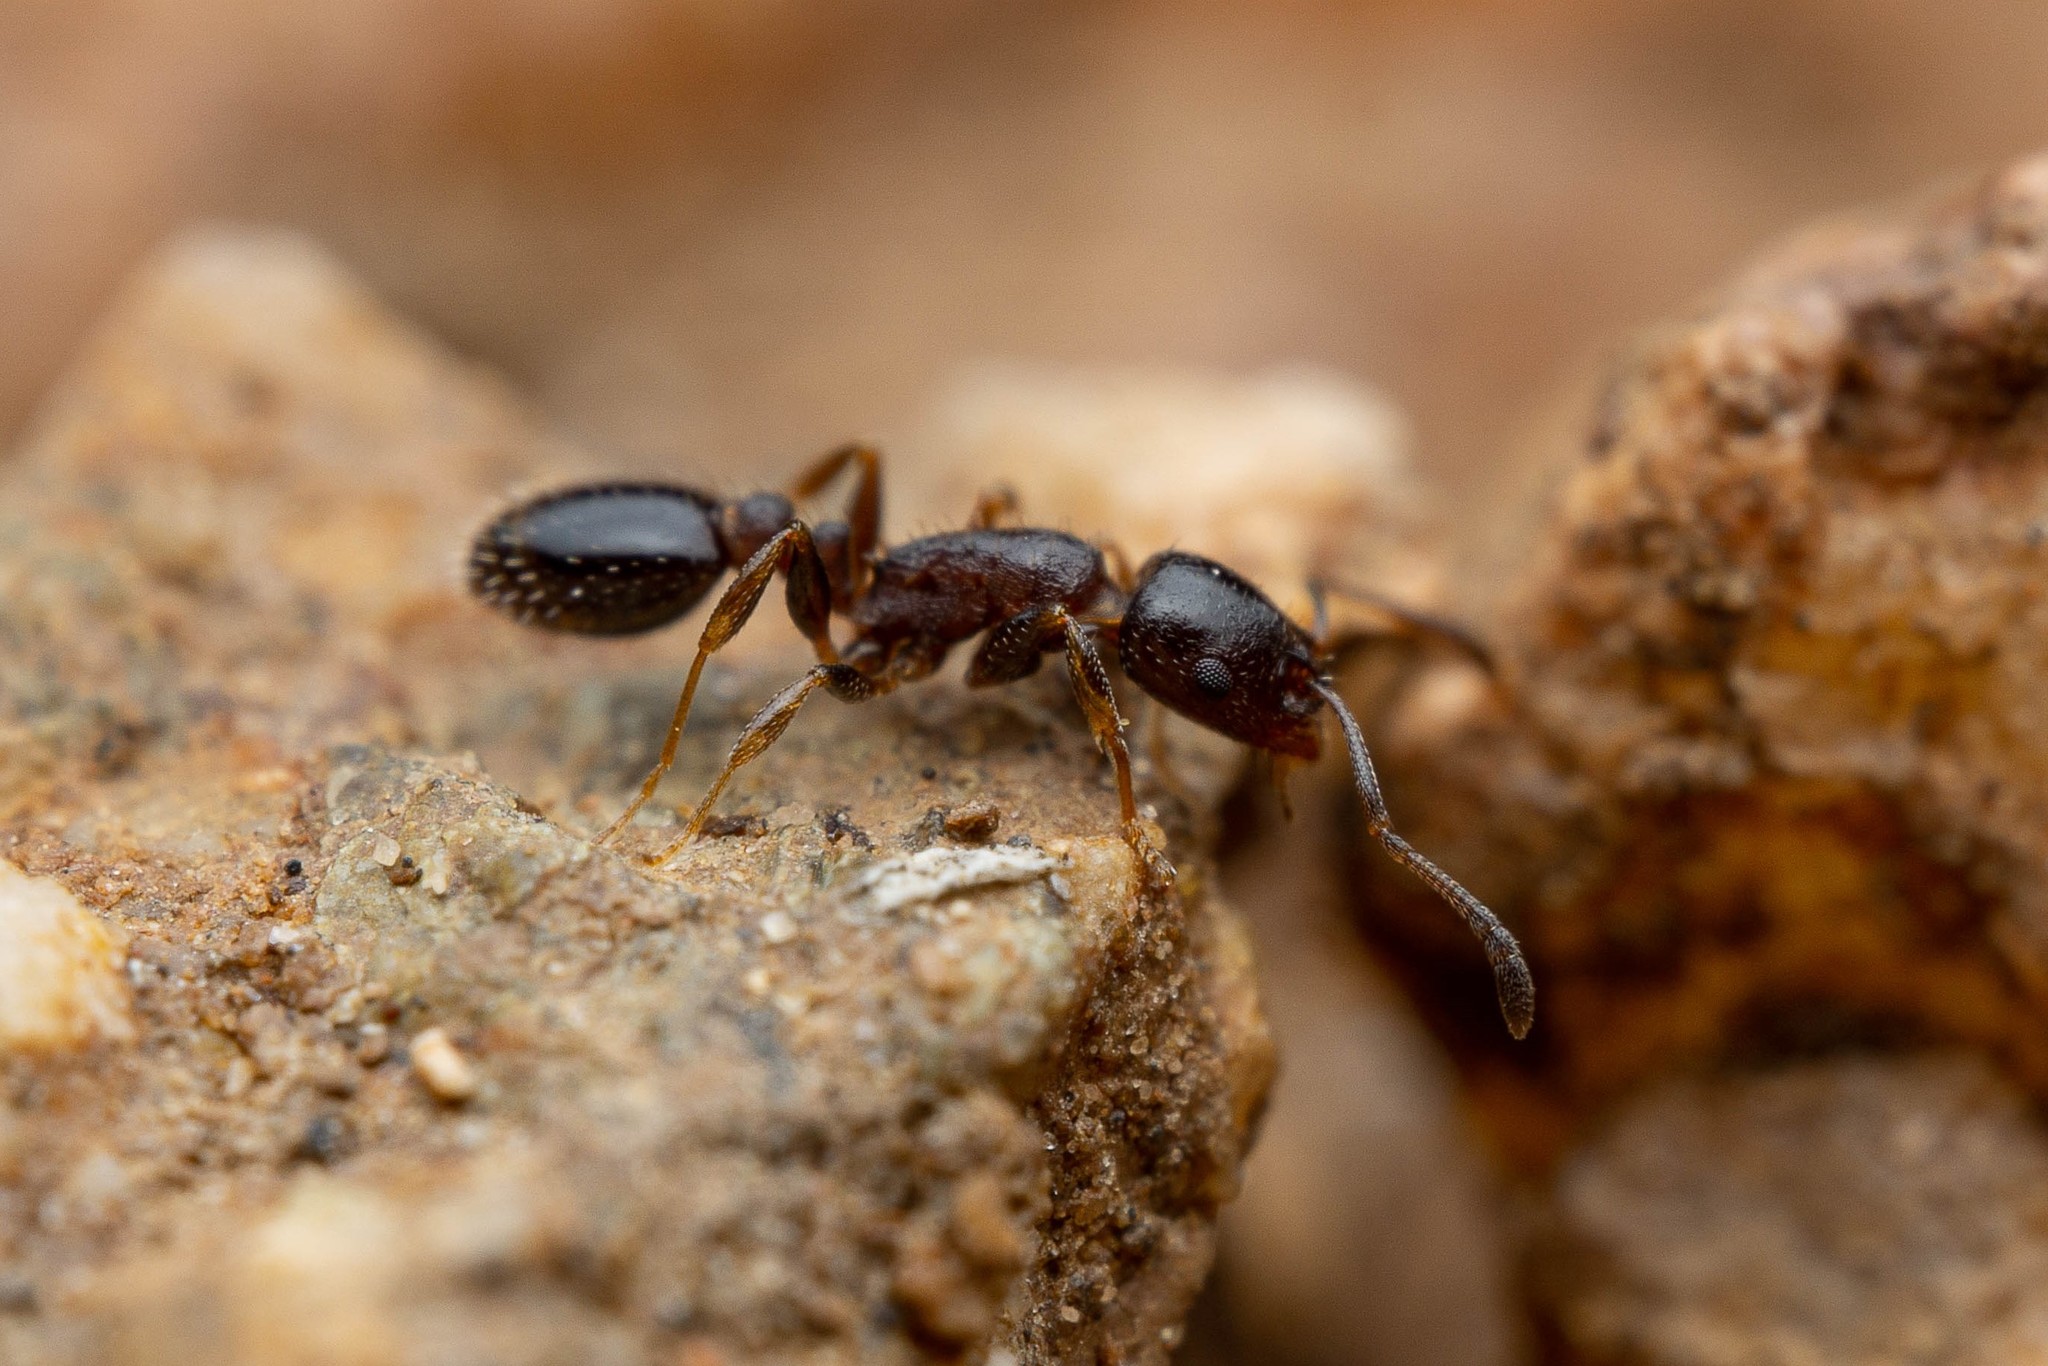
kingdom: Animalia
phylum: Arthropoda
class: Insecta
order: Hymenoptera
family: Formicidae
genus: Leptothorax
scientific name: Leptothorax tricarinatus
